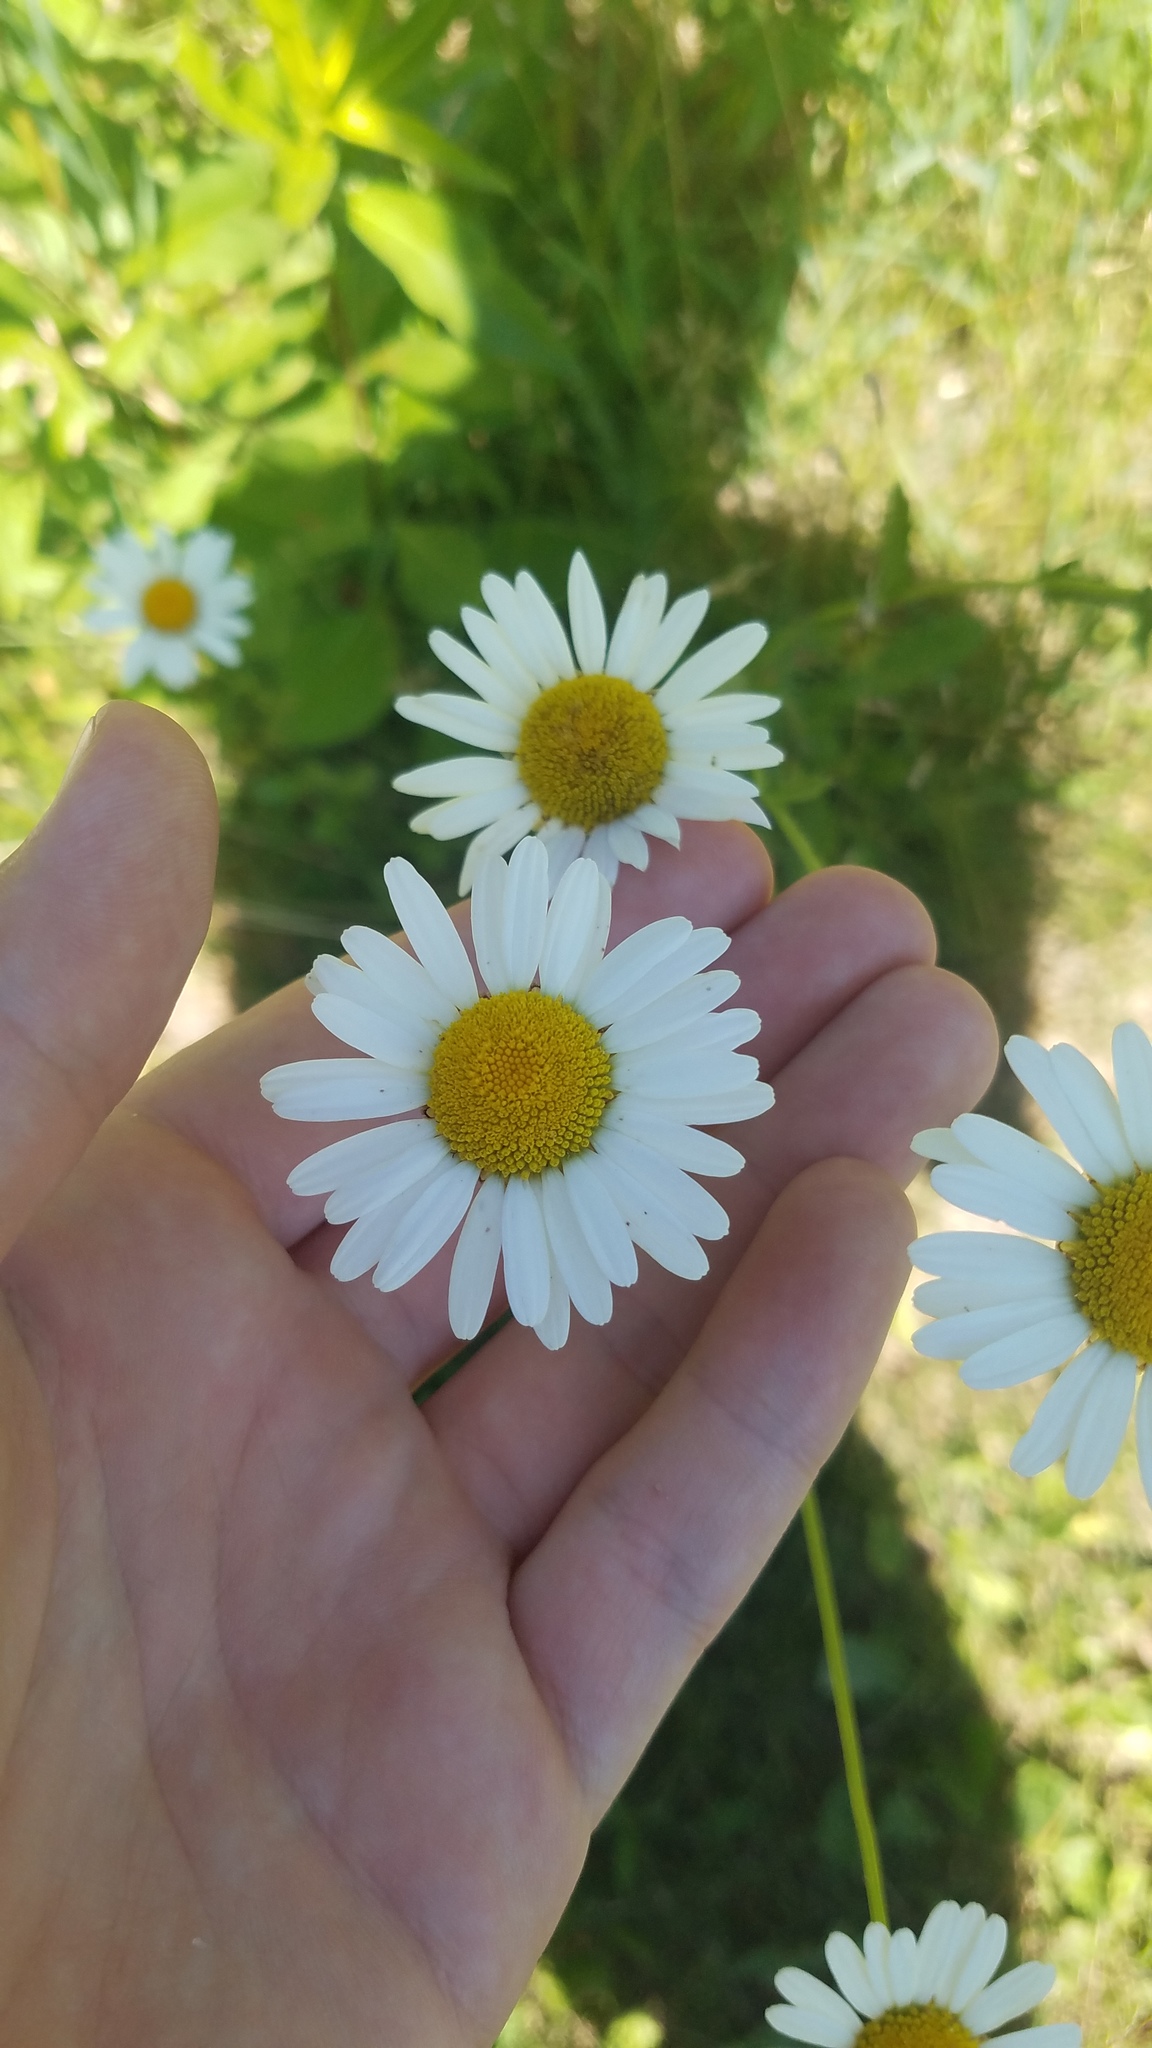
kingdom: Plantae
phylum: Tracheophyta
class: Magnoliopsida
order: Asterales
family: Asteraceae
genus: Leucanthemum
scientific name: Leucanthemum vulgare
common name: Oxeye daisy
